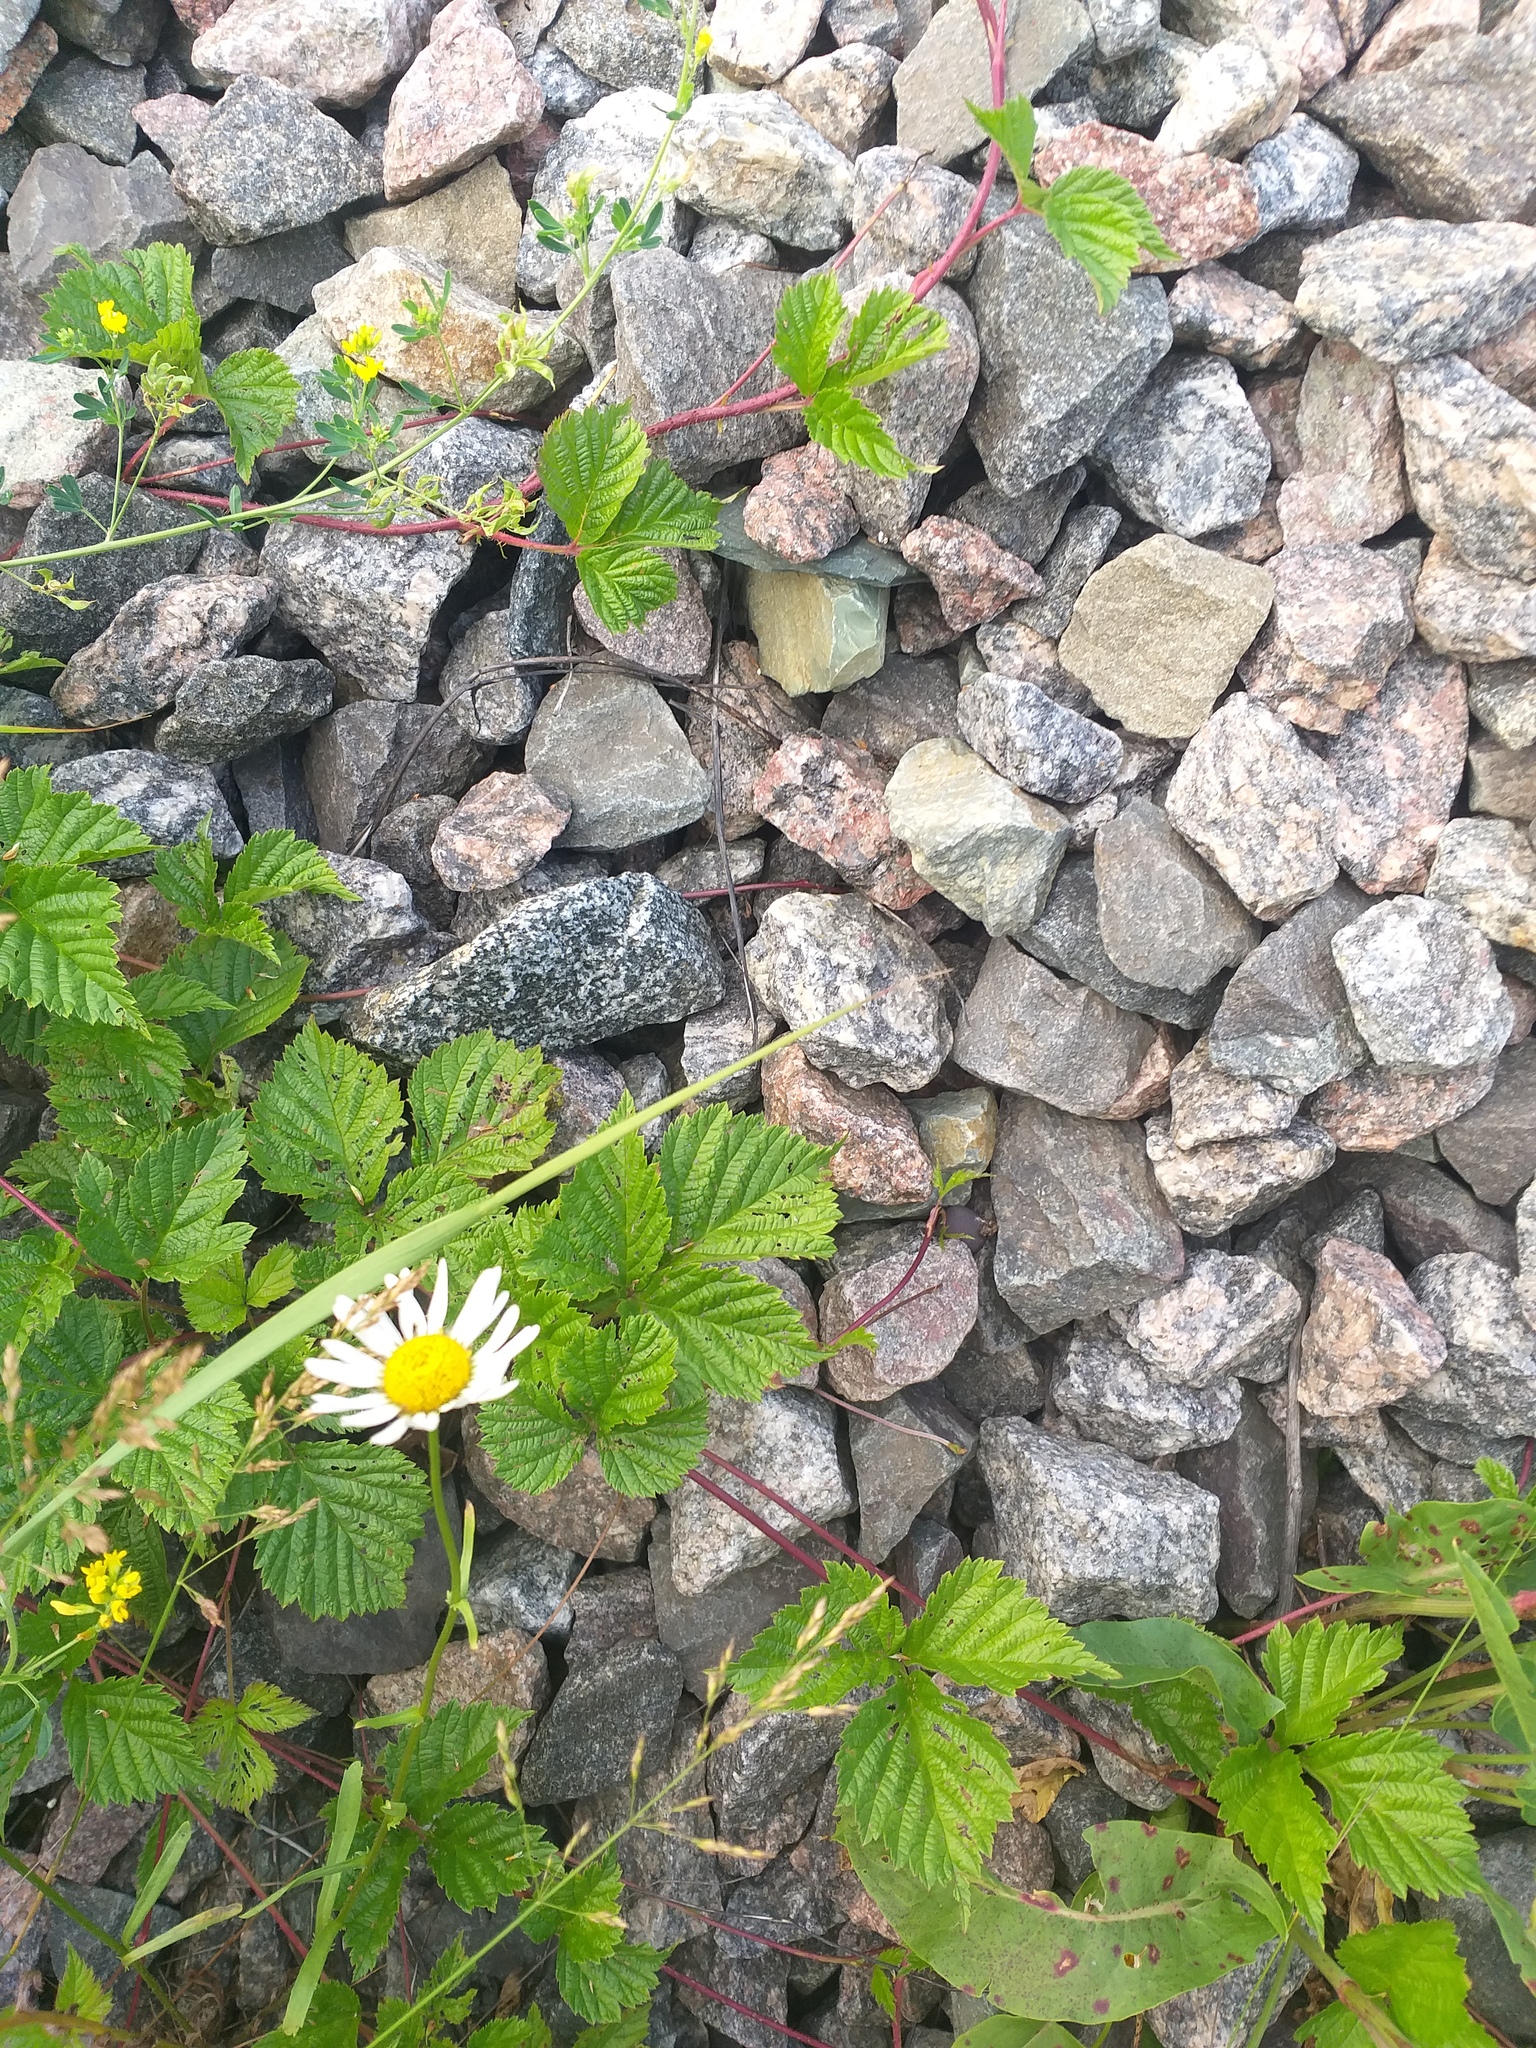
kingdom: Plantae
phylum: Tracheophyta
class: Magnoliopsida
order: Rosales
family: Rosaceae
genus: Rubus
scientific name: Rubus saxatilis
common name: Stone bramble
